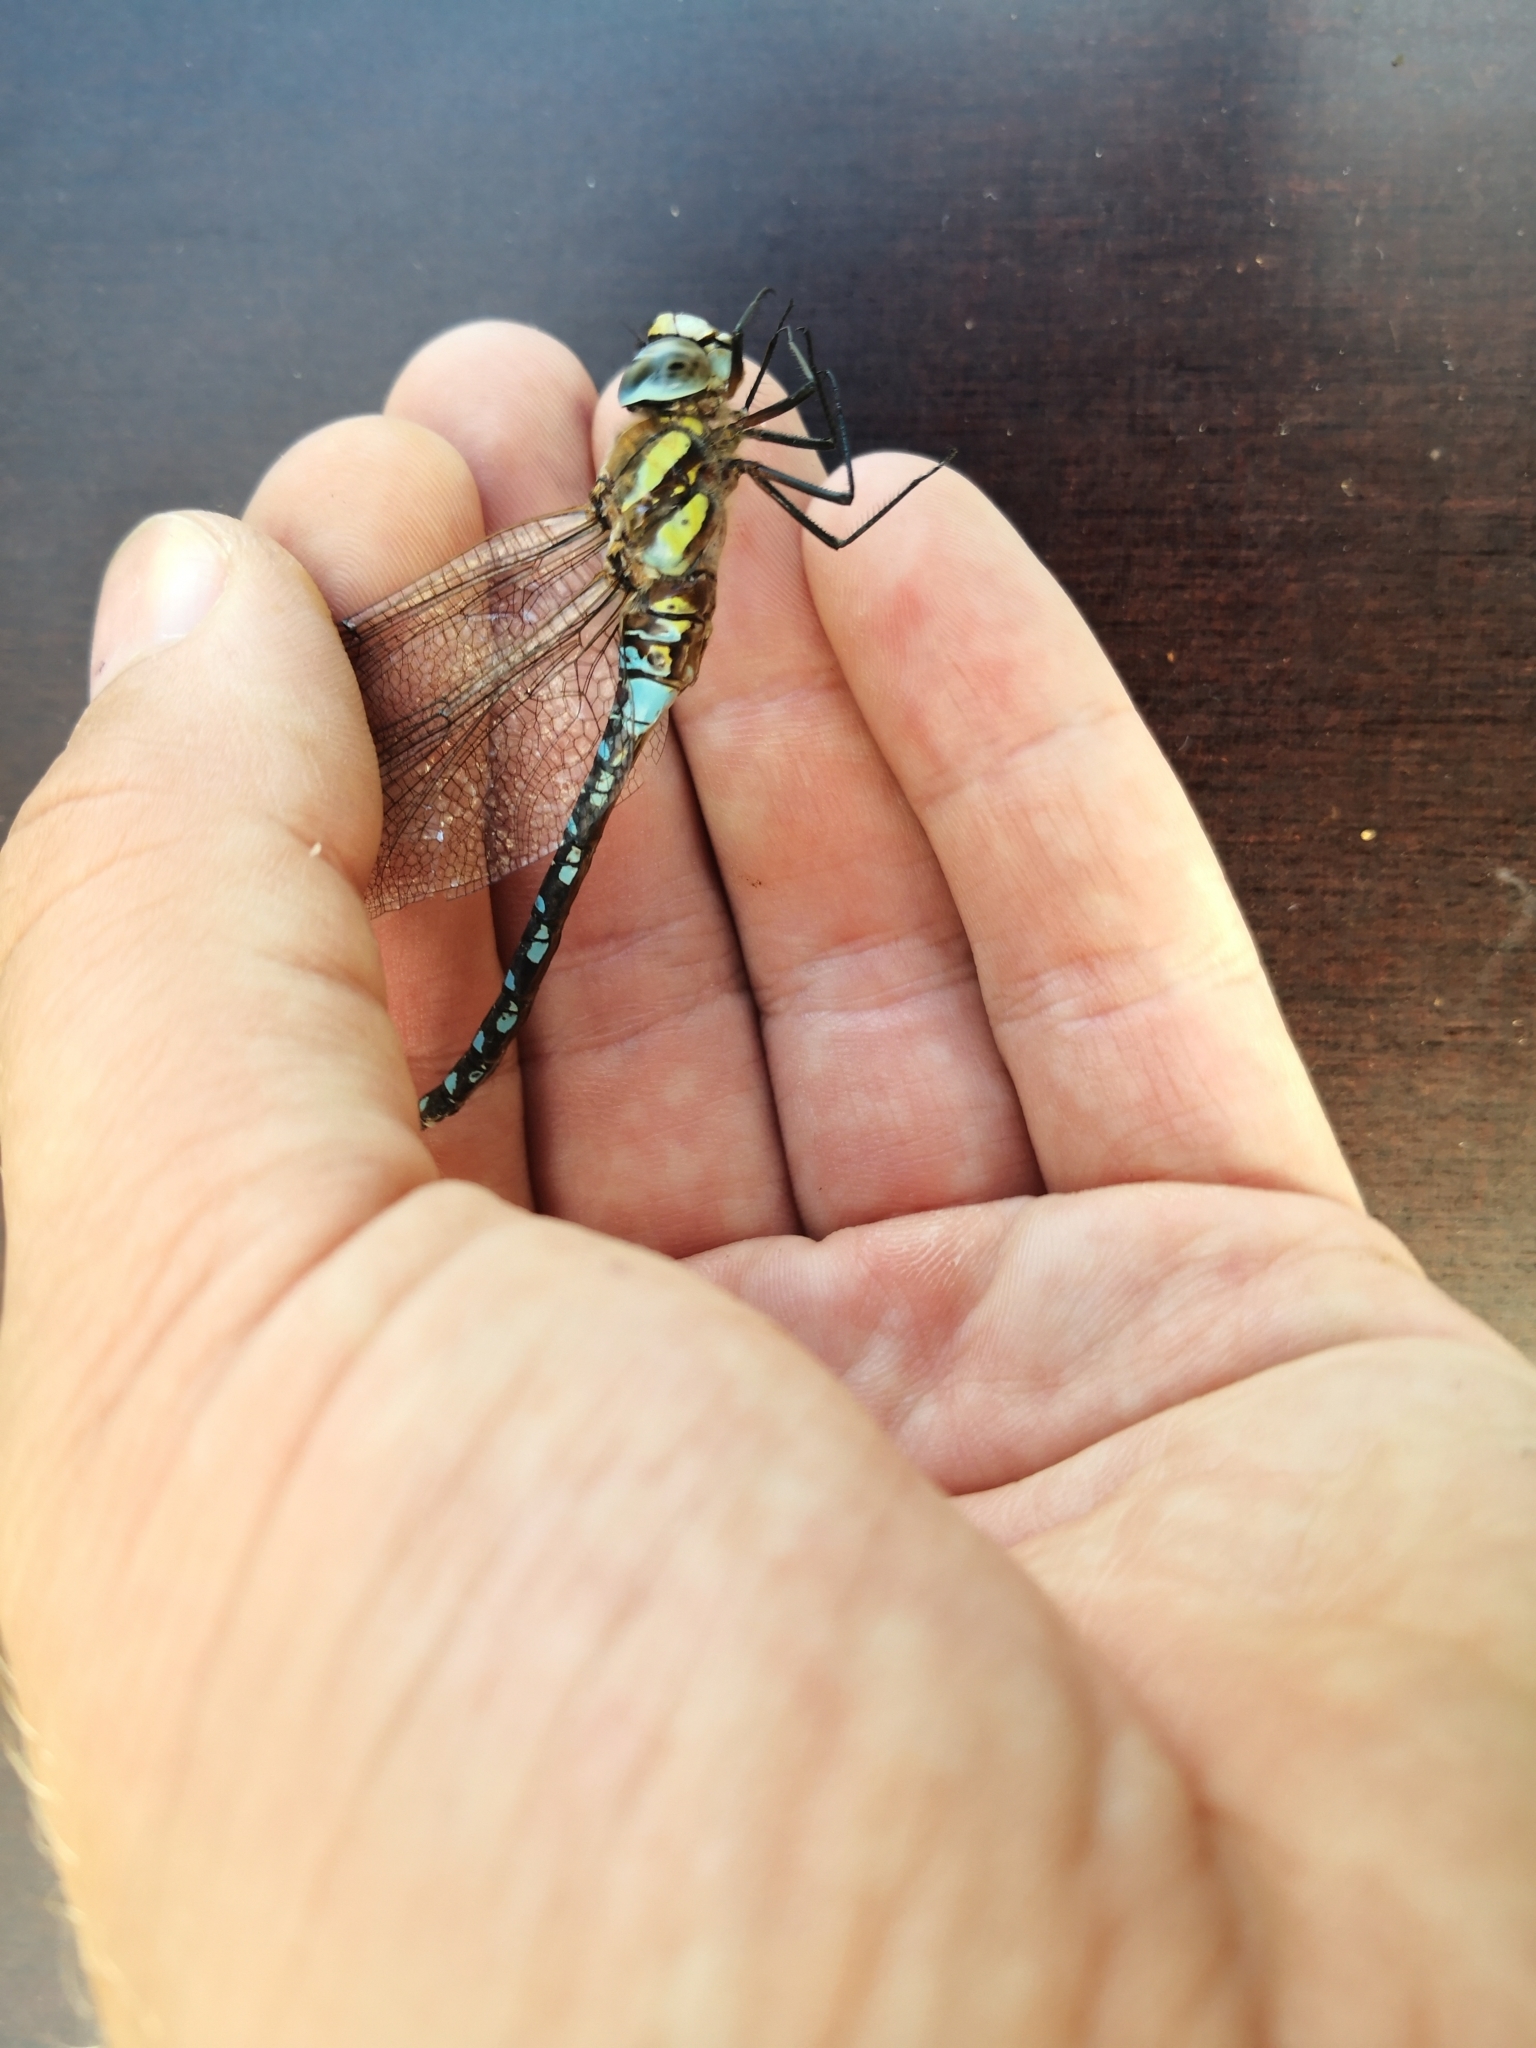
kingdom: Animalia
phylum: Arthropoda
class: Insecta
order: Odonata
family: Aeshnidae
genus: Aeshna
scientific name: Aeshna mixta
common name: Migrant hawker
